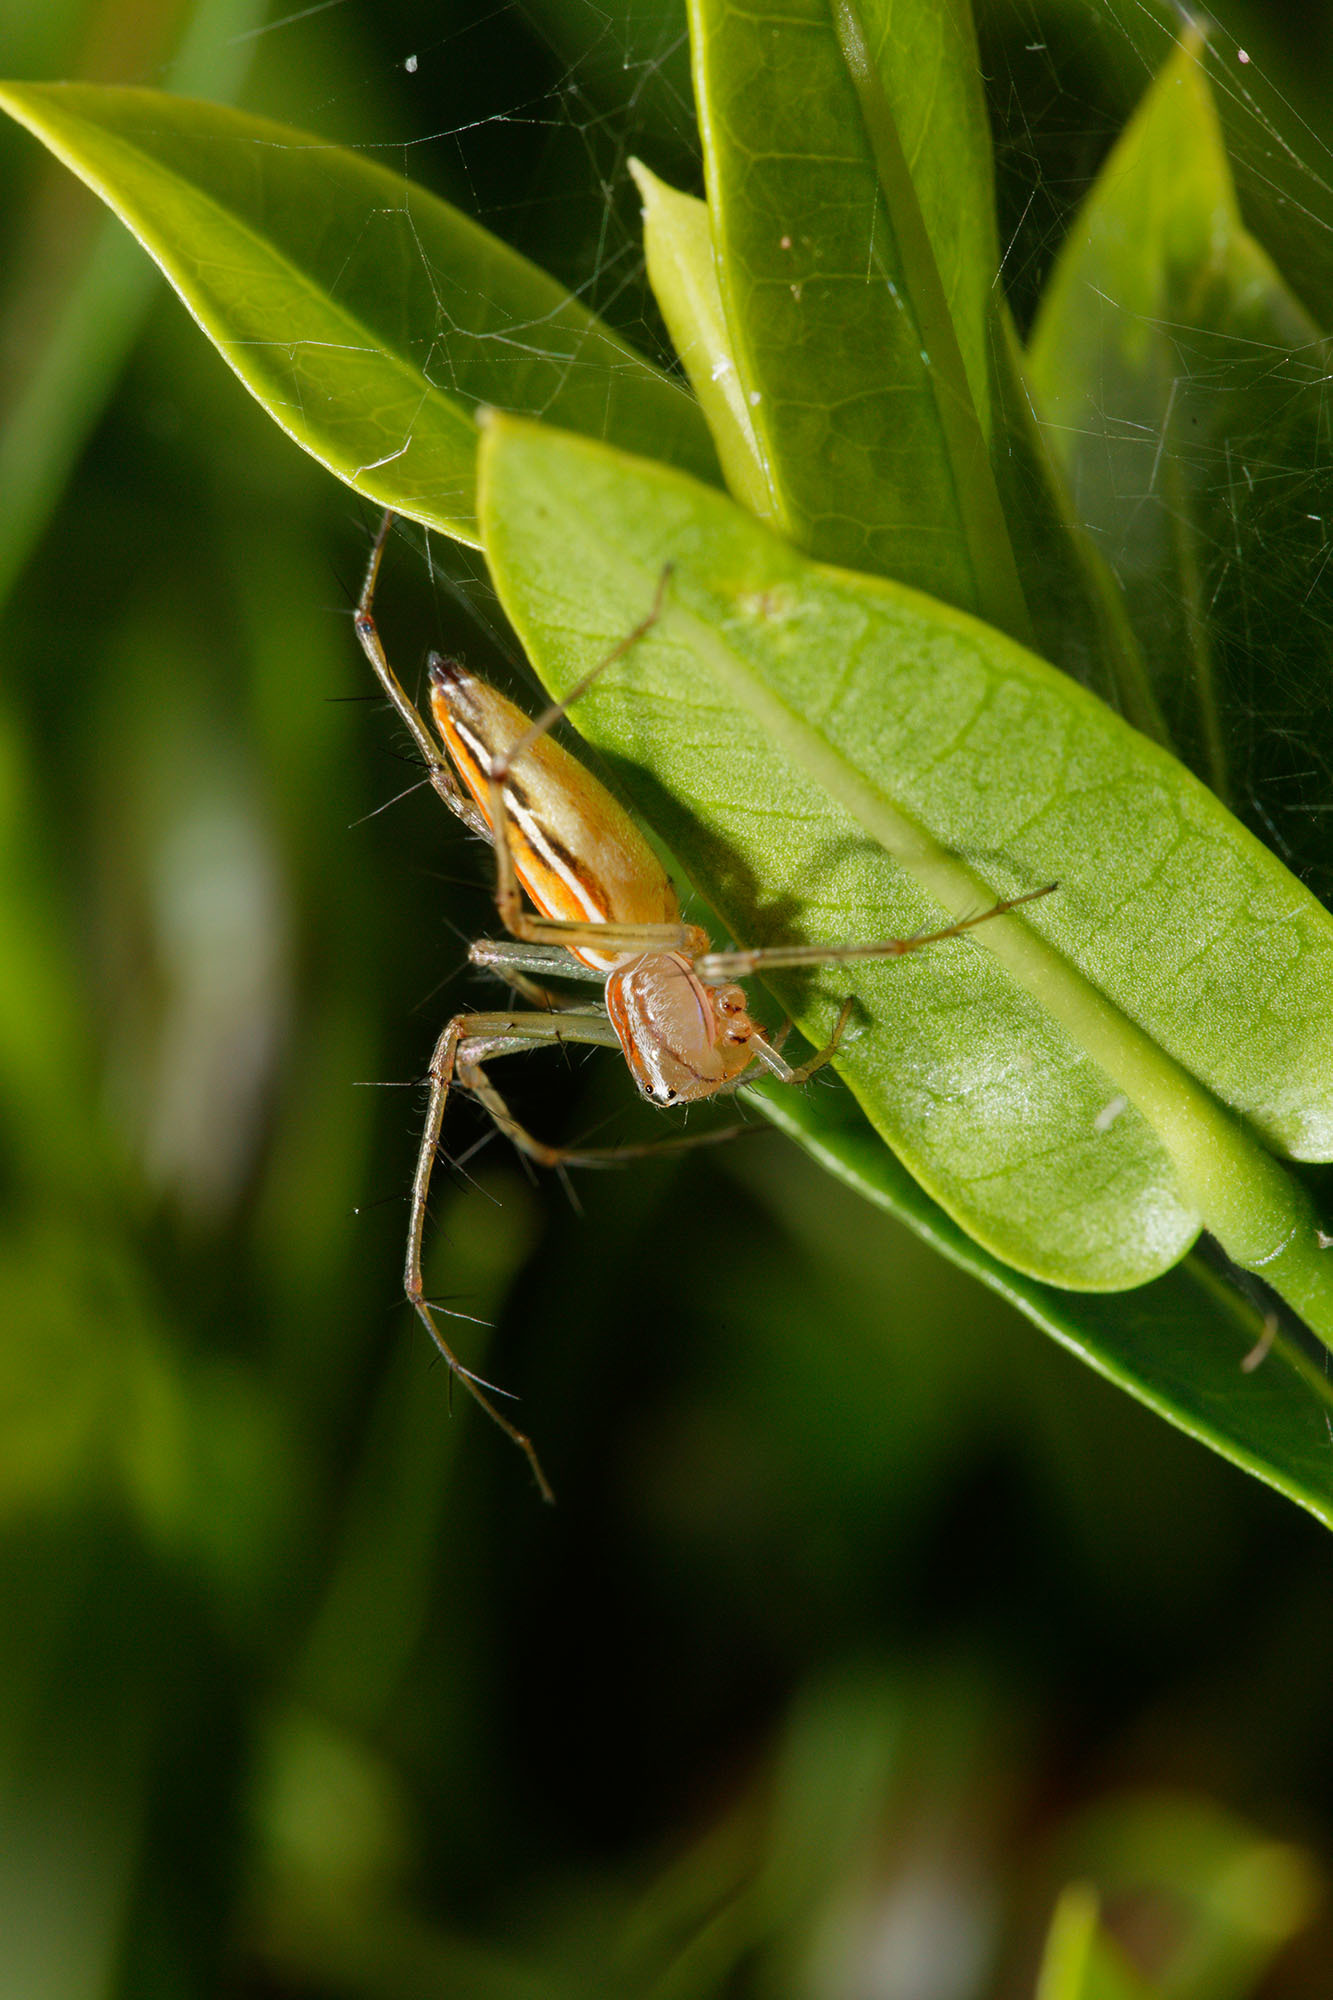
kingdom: Animalia
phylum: Arthropoda
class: Arachnida
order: Araneae
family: Oxyopidae
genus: Oxyopes
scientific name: Oxyopes macilentus
